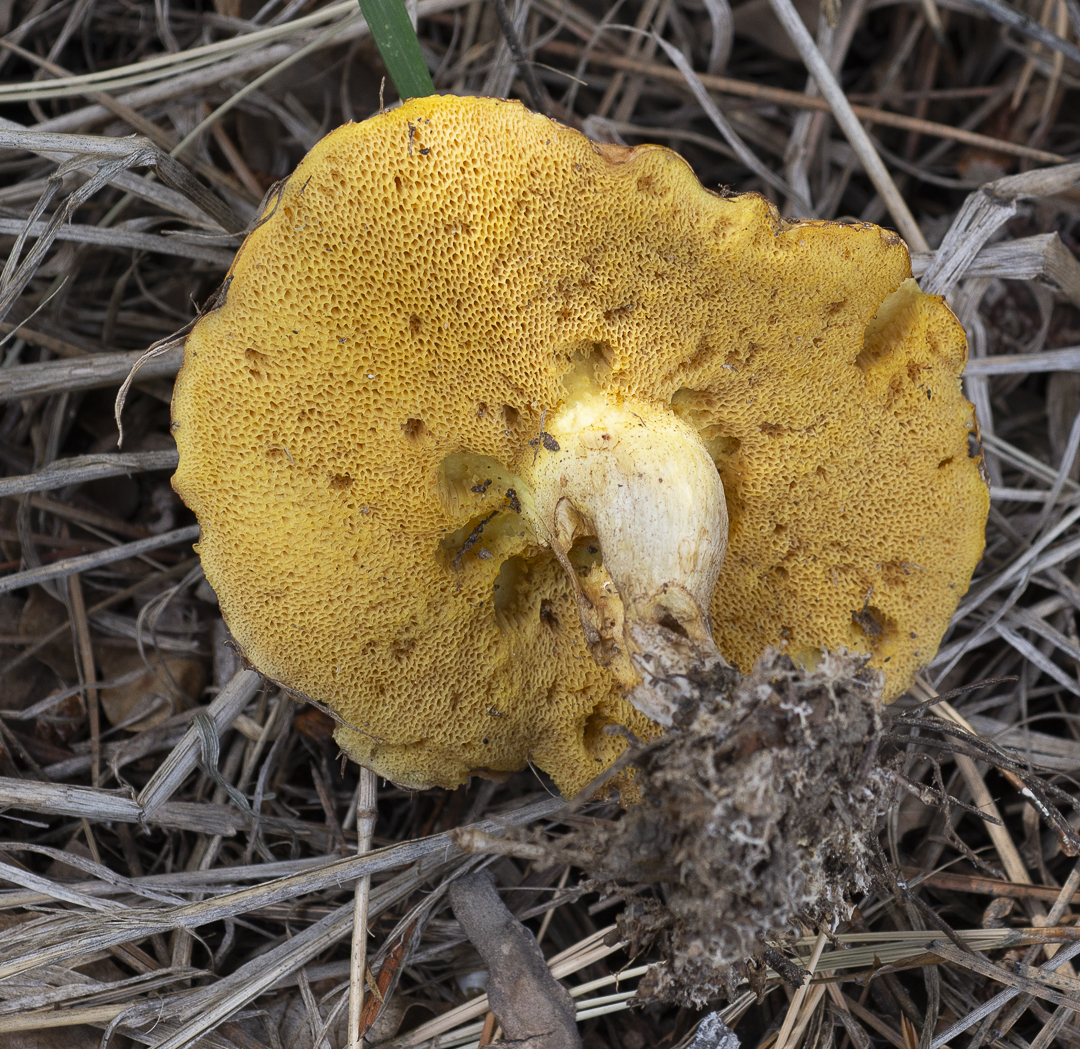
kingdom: Fungi
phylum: Basidiomycota
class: Agaricomycetes
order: Boletales
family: Suillaceae
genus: Suillus
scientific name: Suillus kaibabensis
